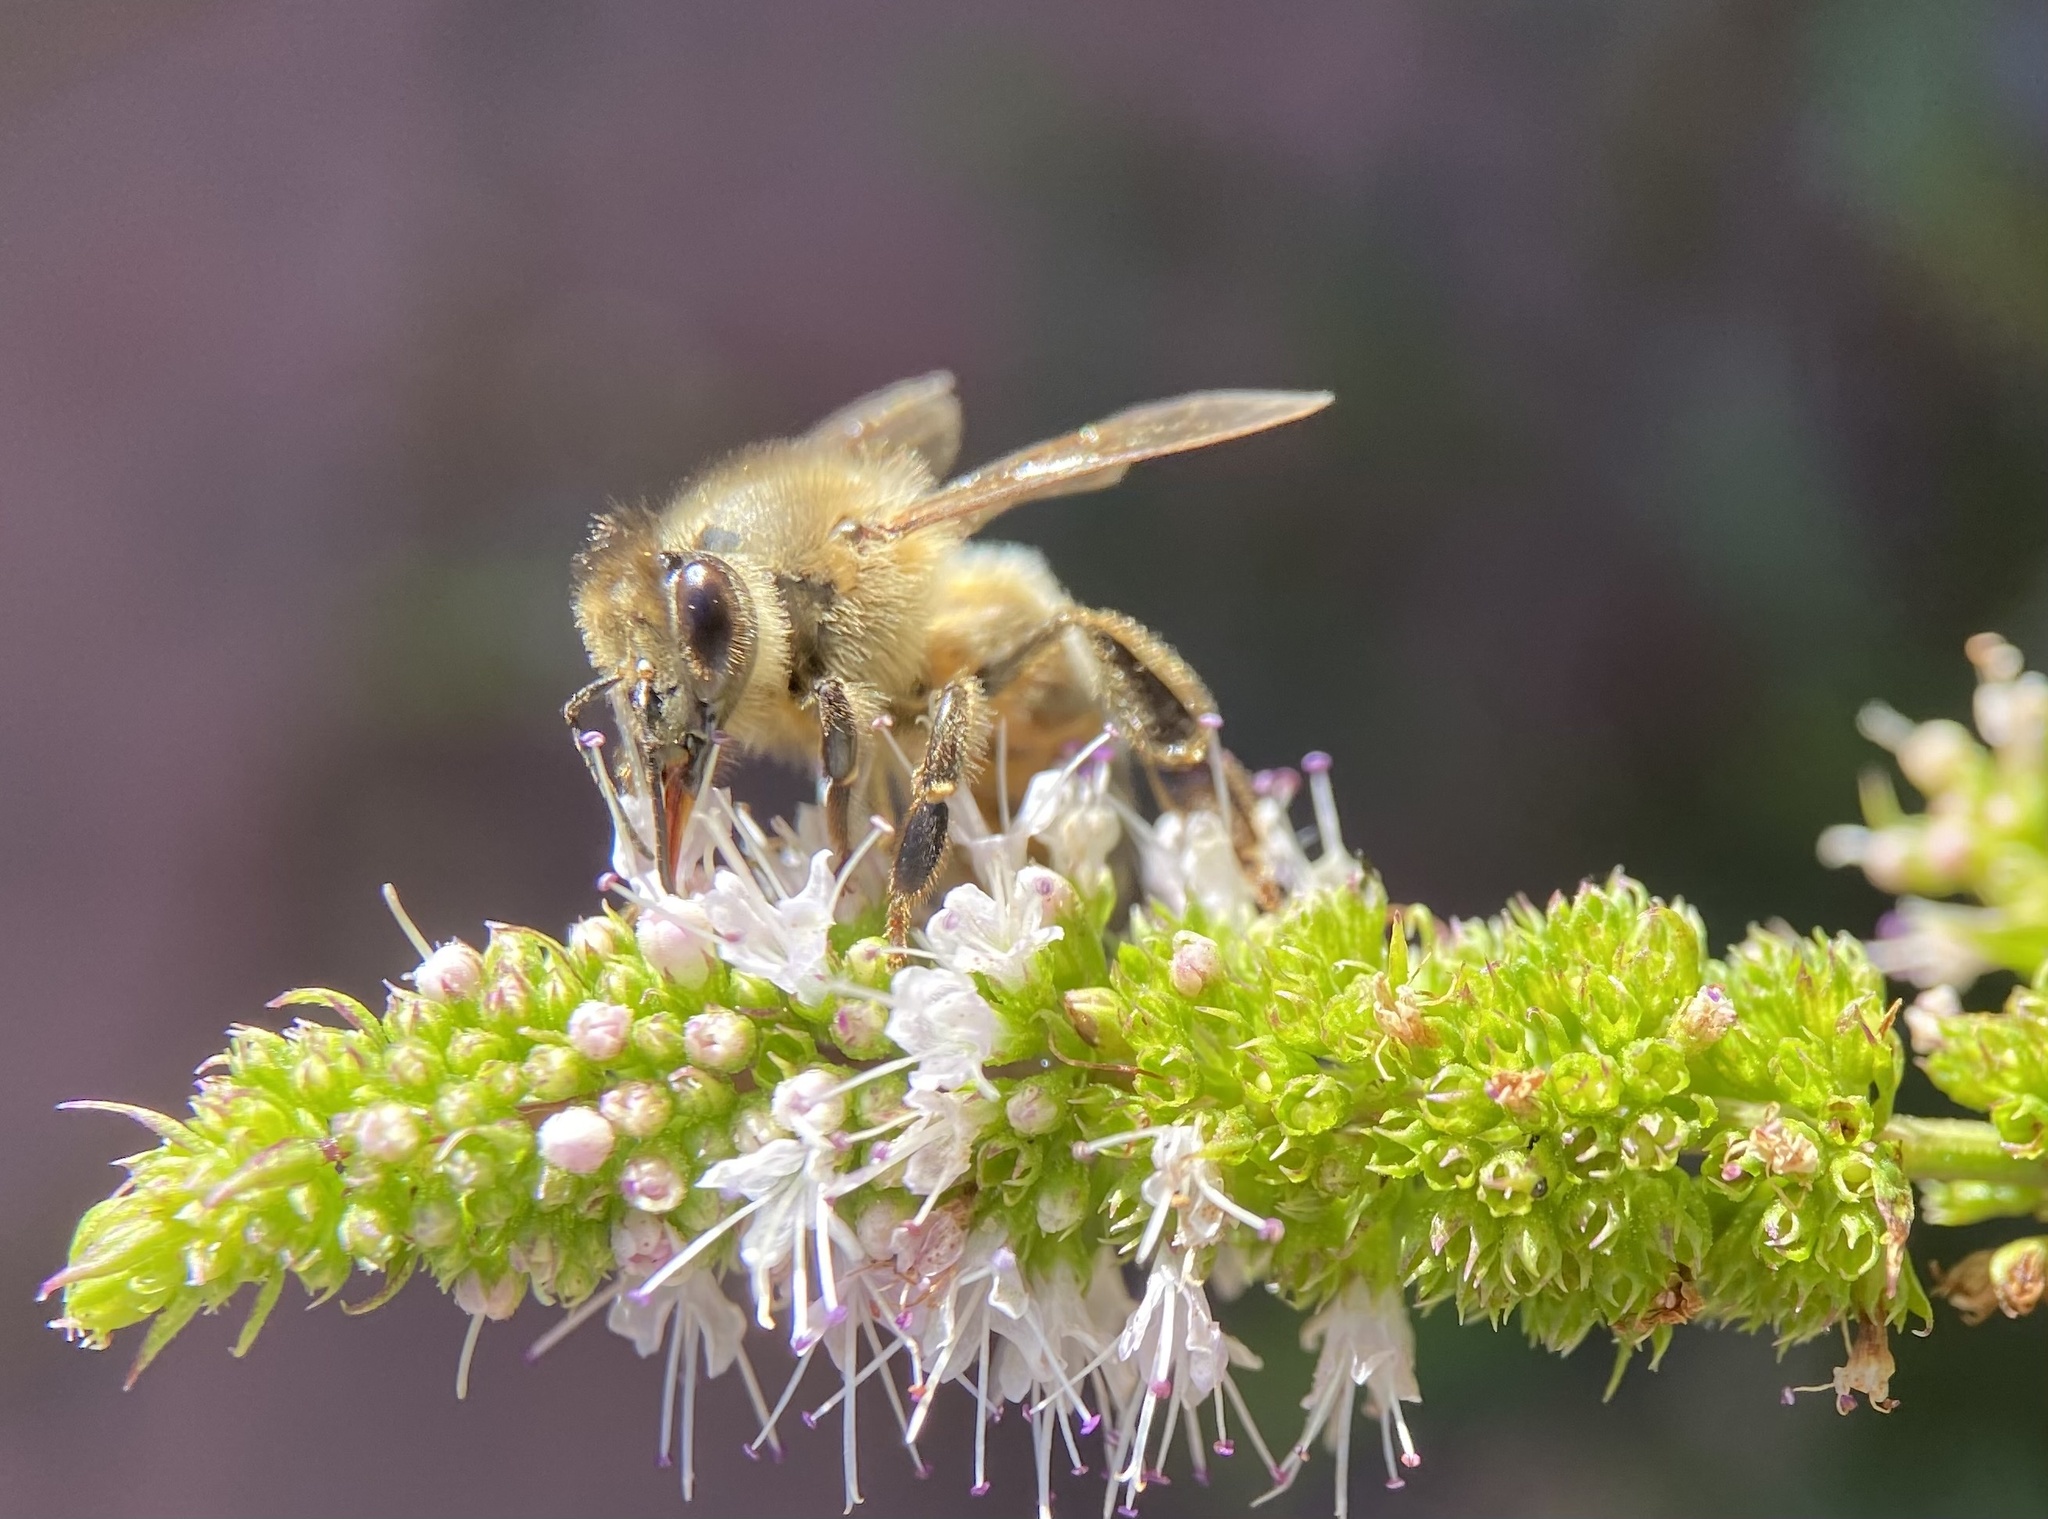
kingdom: Animalia
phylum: Arthropoda
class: Insecta
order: Hymenoptera
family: Apidae
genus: Apis
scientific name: Apis mellifera
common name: Honey bee
